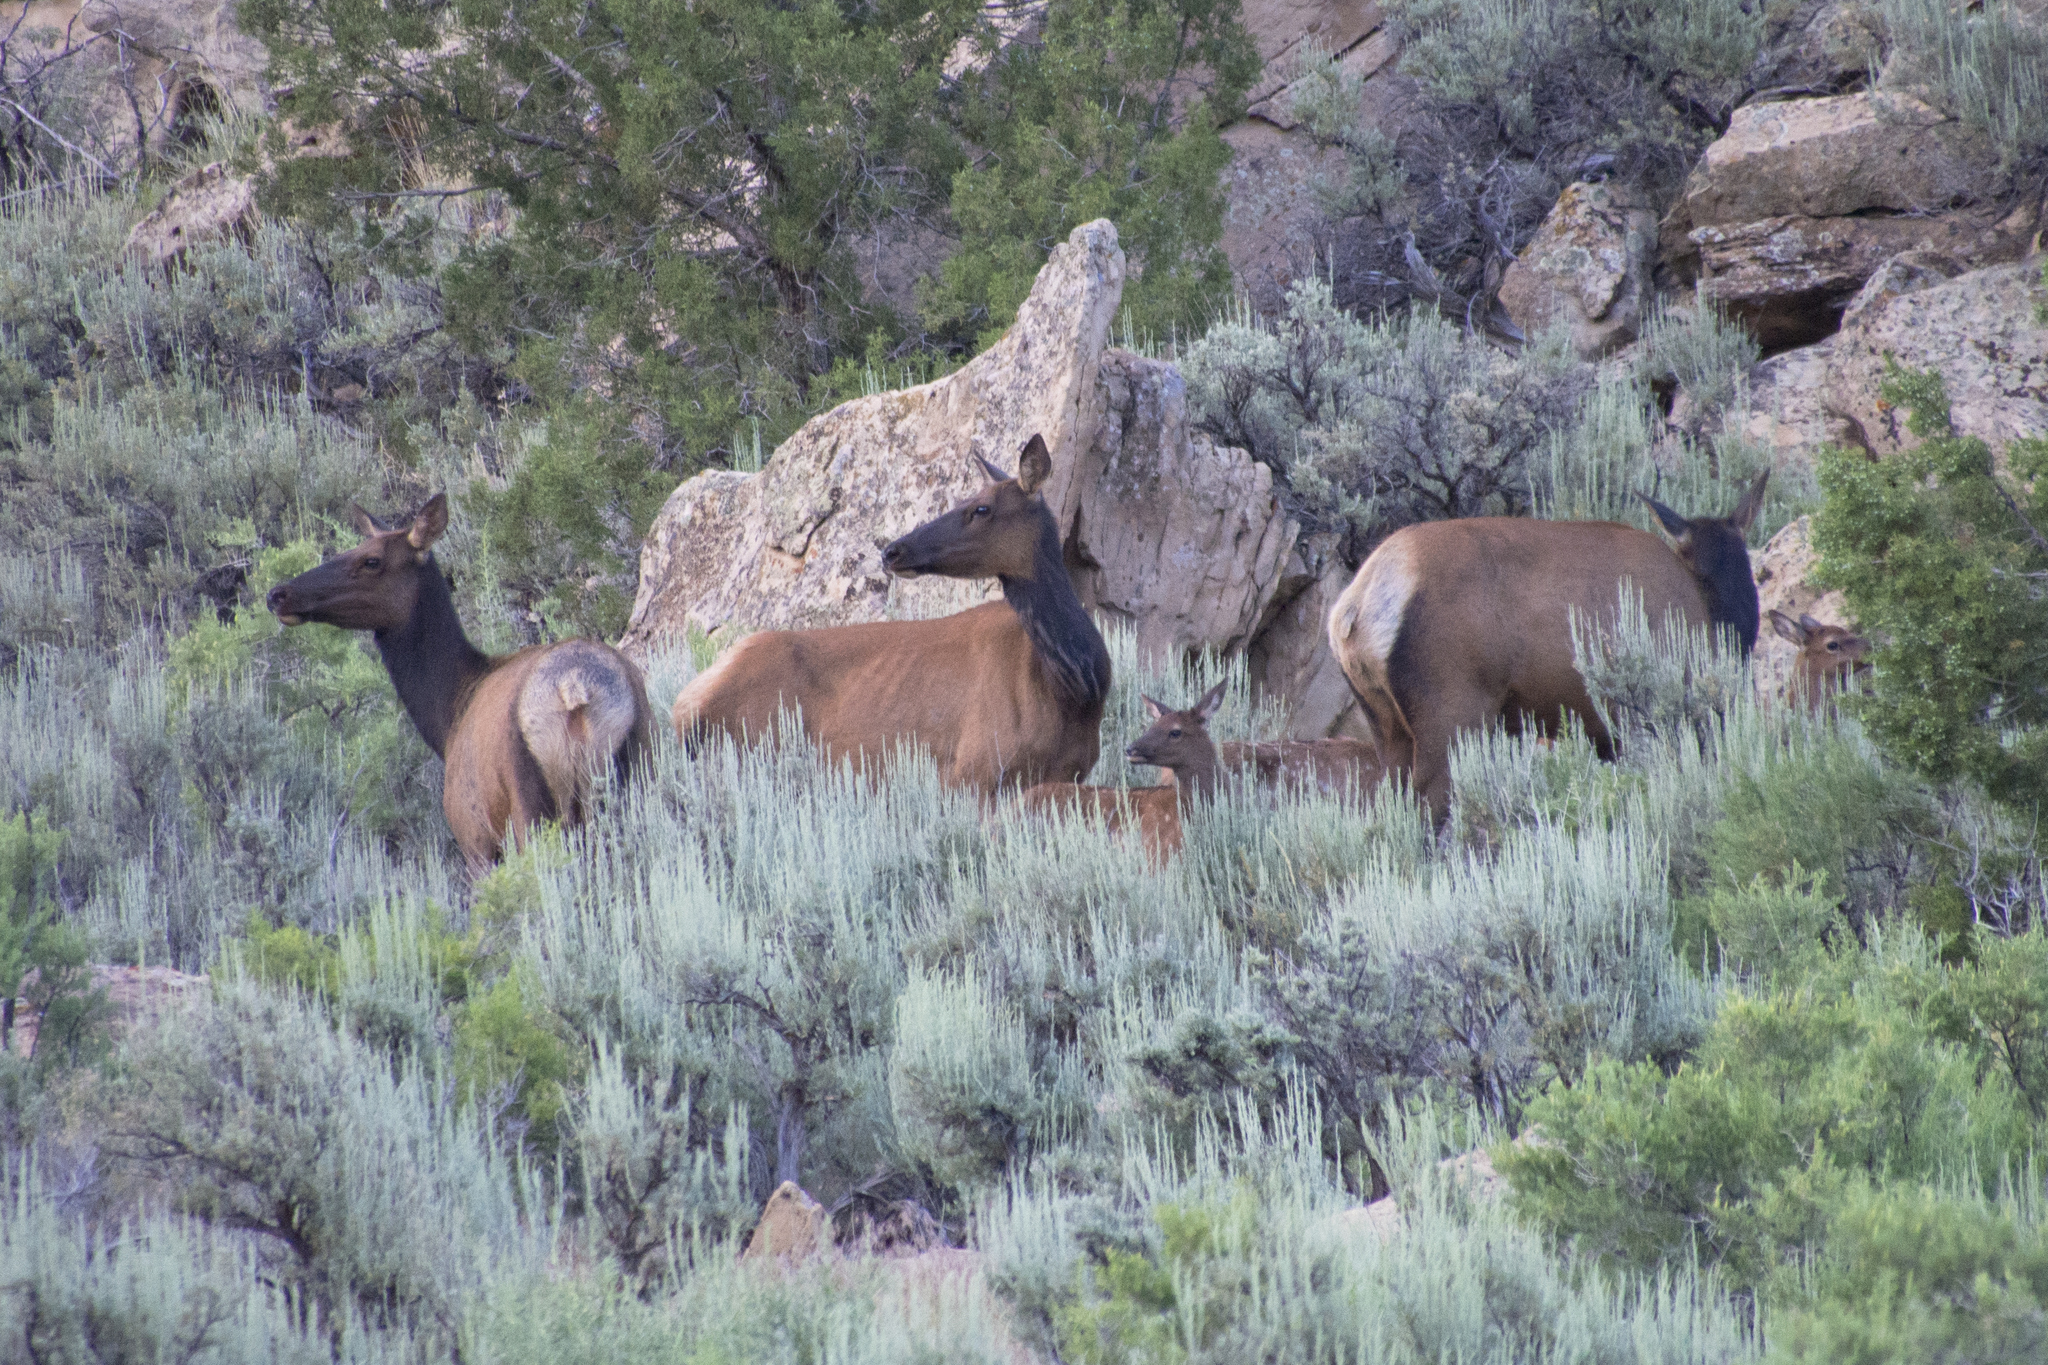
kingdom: Animalia
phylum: Chordata
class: Mammalia
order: Artiodactyla
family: Cervidae
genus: Cervus
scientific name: Cervus elaphus
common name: Red deer
